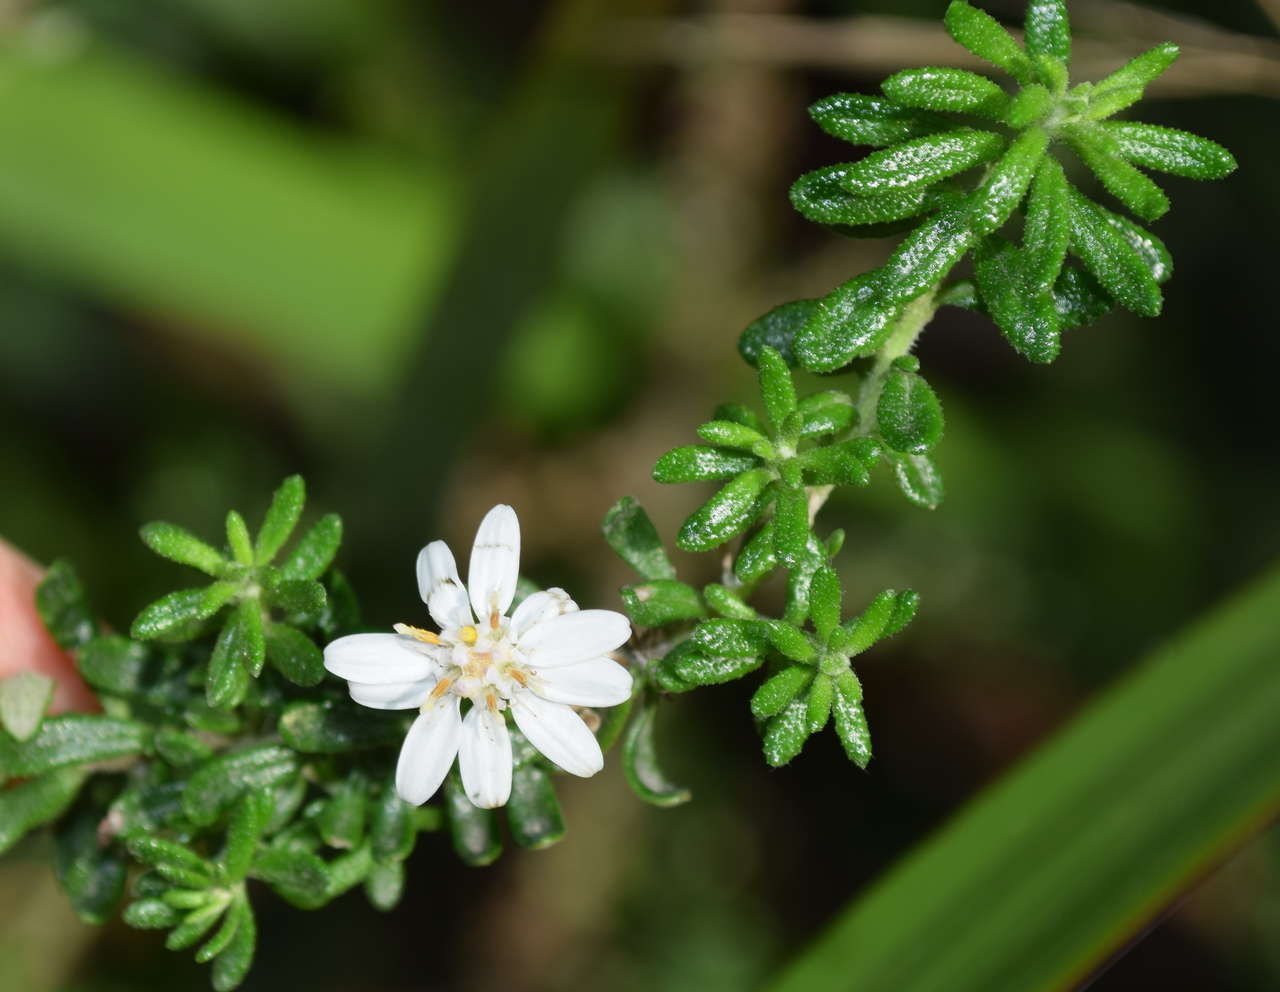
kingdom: Plantae
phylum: Tracheophyta
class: Magnoliopsida
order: Asterales
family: Asteraceae
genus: Olearia
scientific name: Olearia ramulosa
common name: Twiggy daisybush
